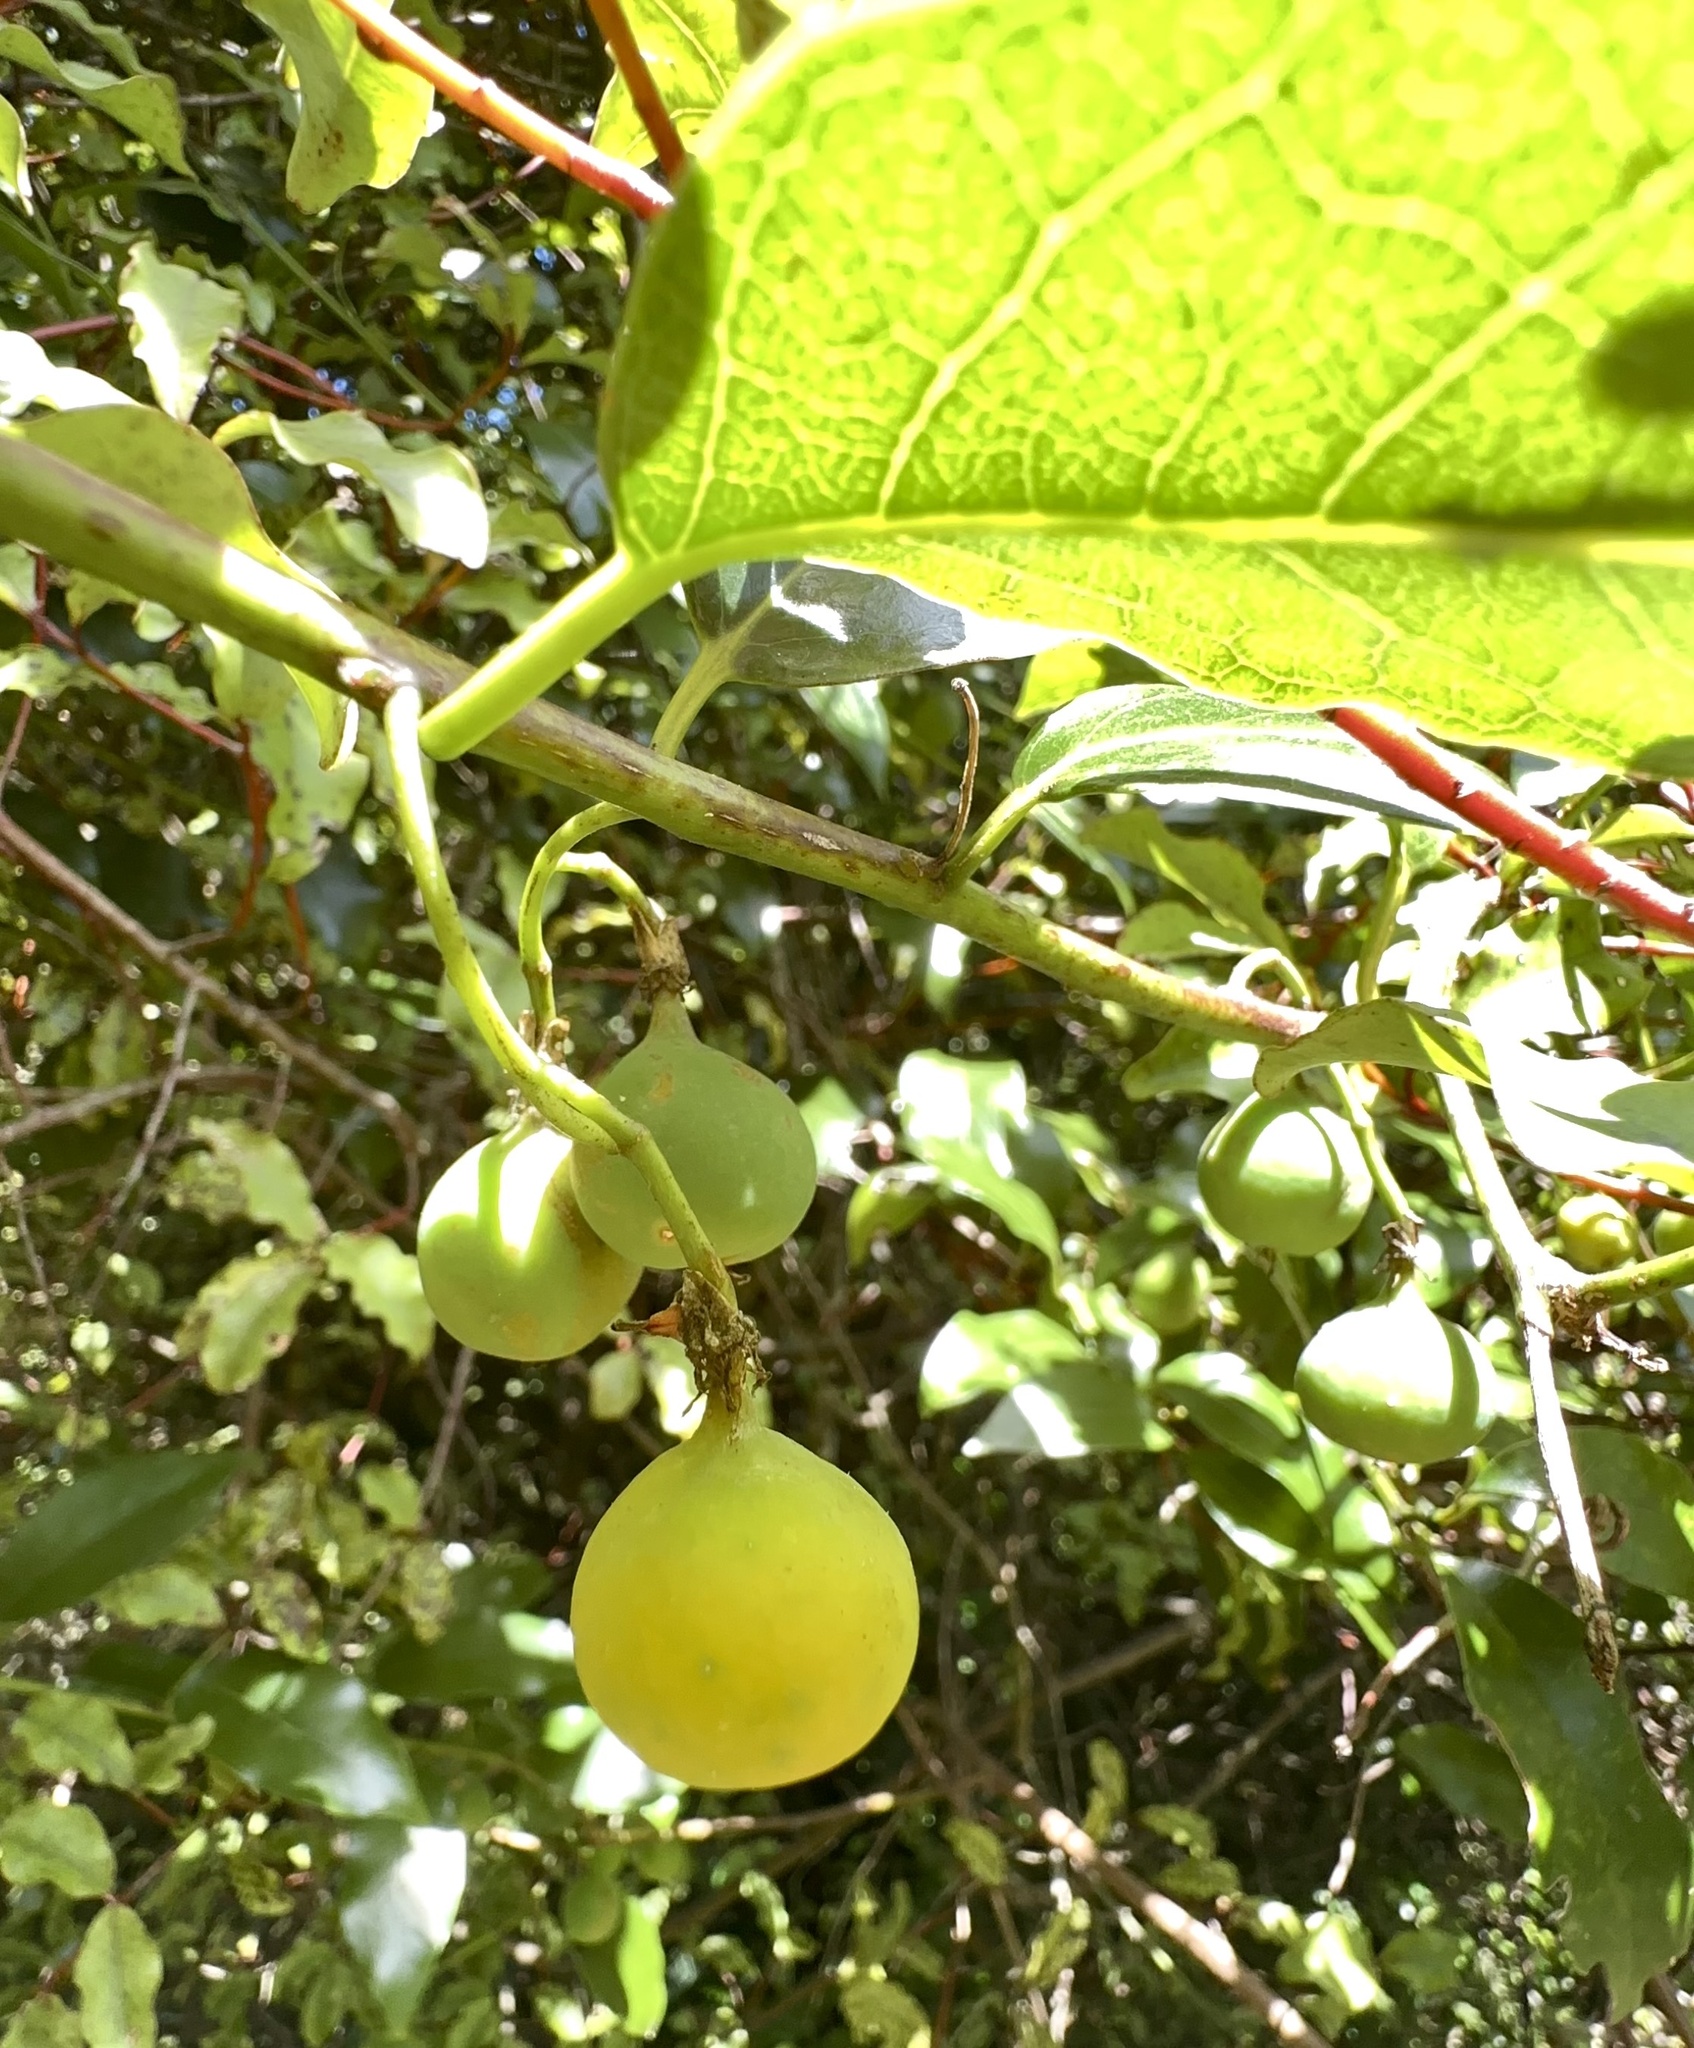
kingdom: Plantae
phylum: Tracheophyta
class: Magnoliopsida
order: Malpighiales
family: Passifloraceae
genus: Passiflora
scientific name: Passiflora tetrandra
